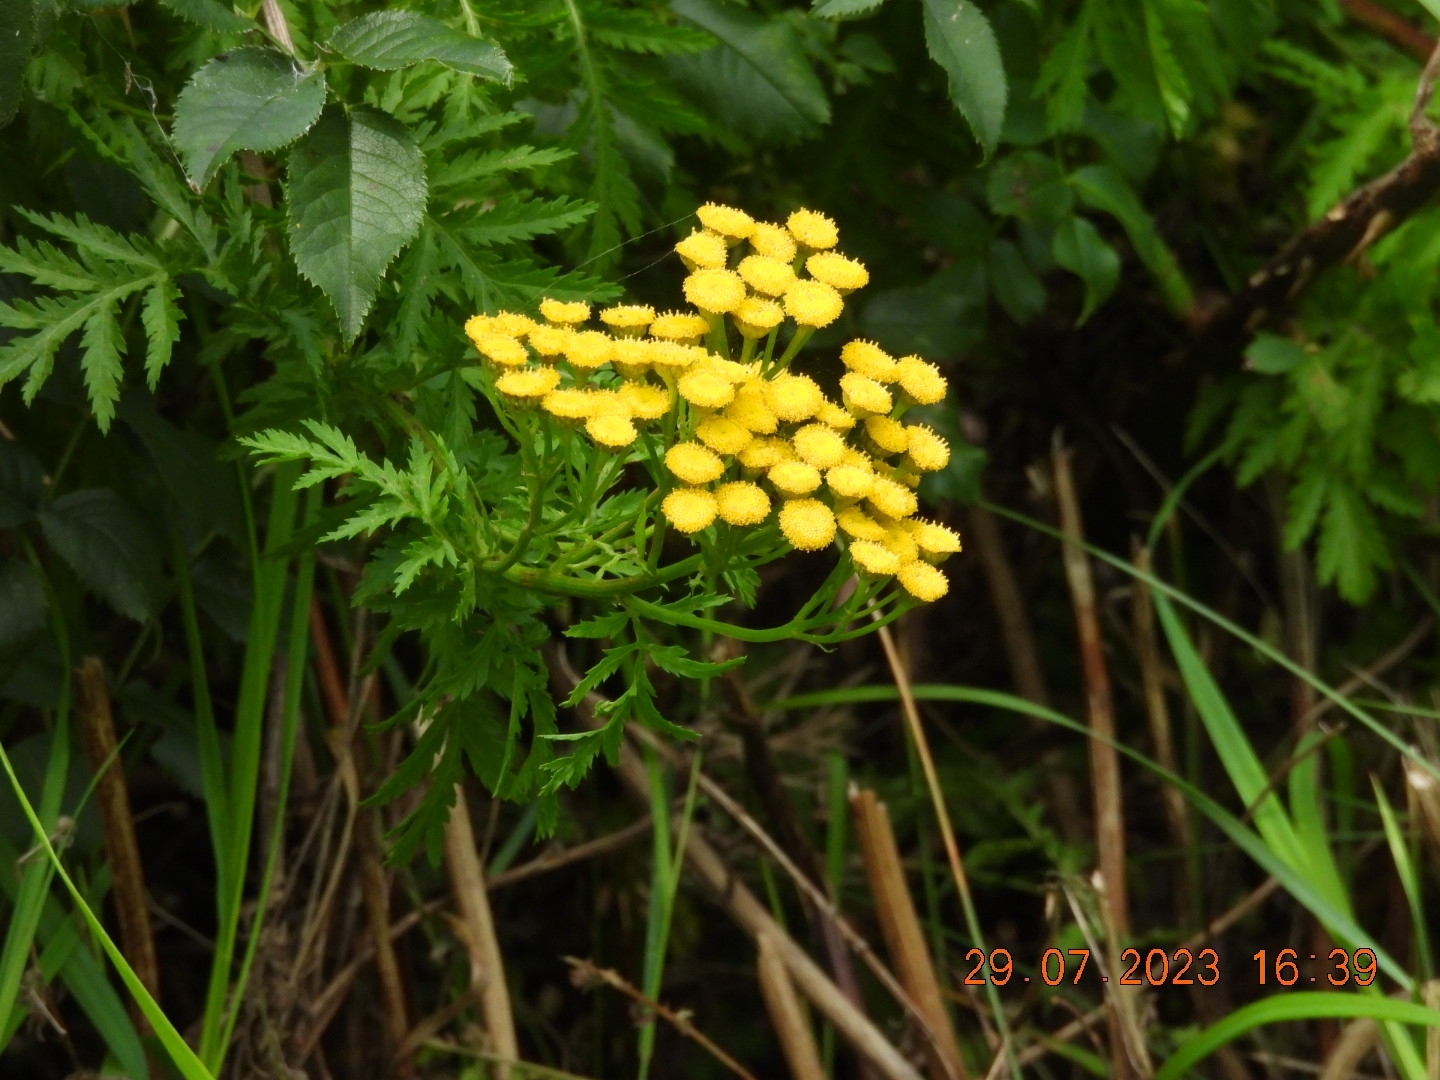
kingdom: Plantae
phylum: Tracheophyta
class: Magnoliopsida
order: Asterales
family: Asteraceae
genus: Tanacetum
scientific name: Tanacetum vulgare
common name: Common tansy
